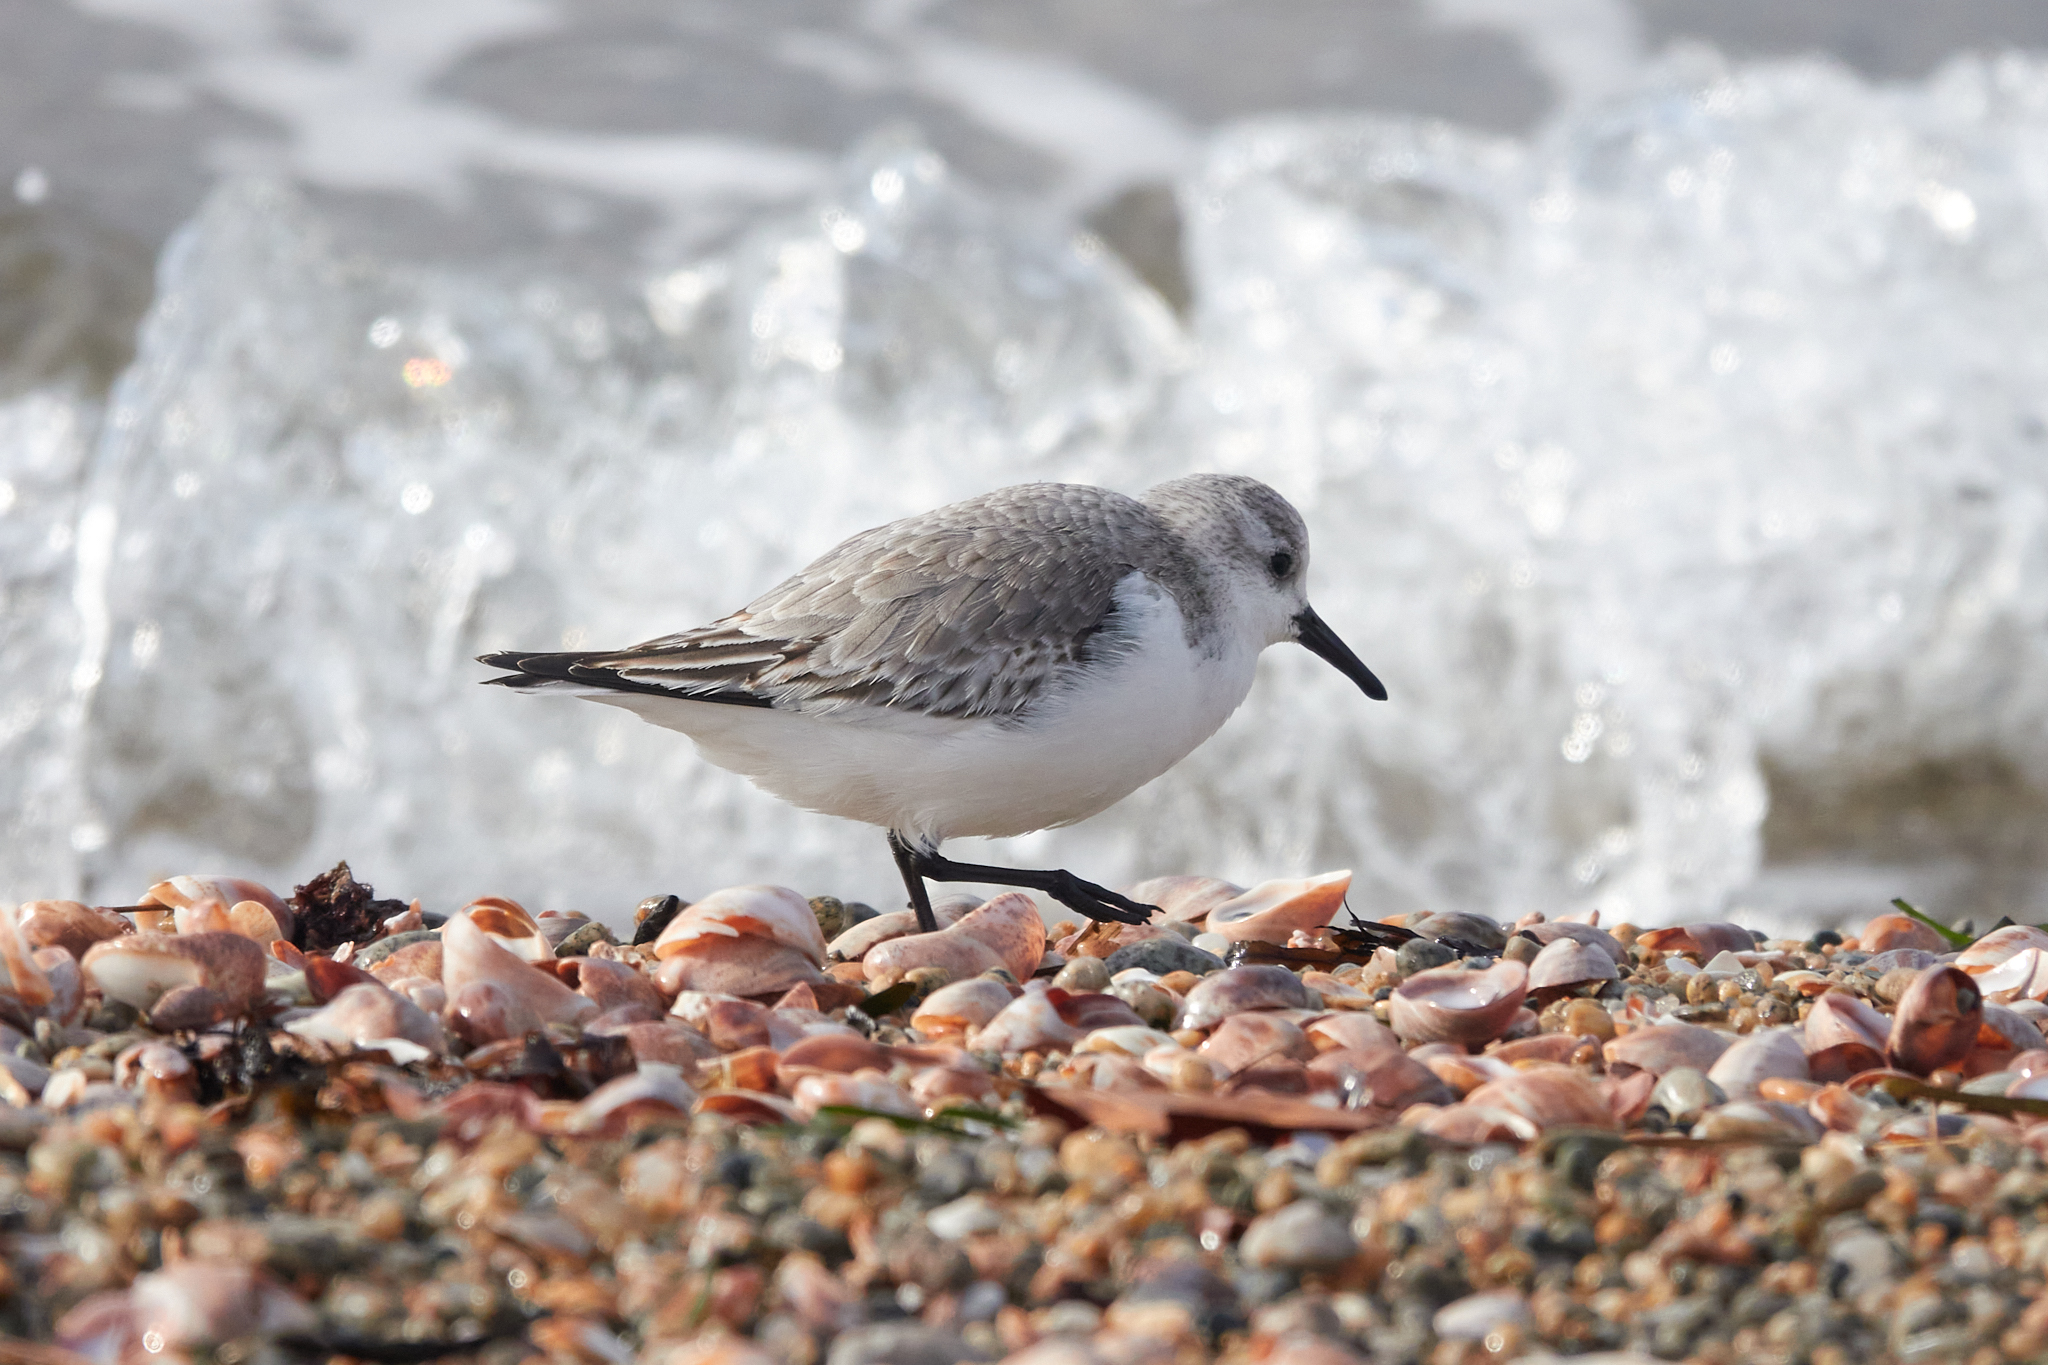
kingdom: Animalia
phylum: Chordata
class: Aves
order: Charadriiformes
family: Scolopacidae
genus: Calidris
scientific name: Calidris alba
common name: Sanderling
